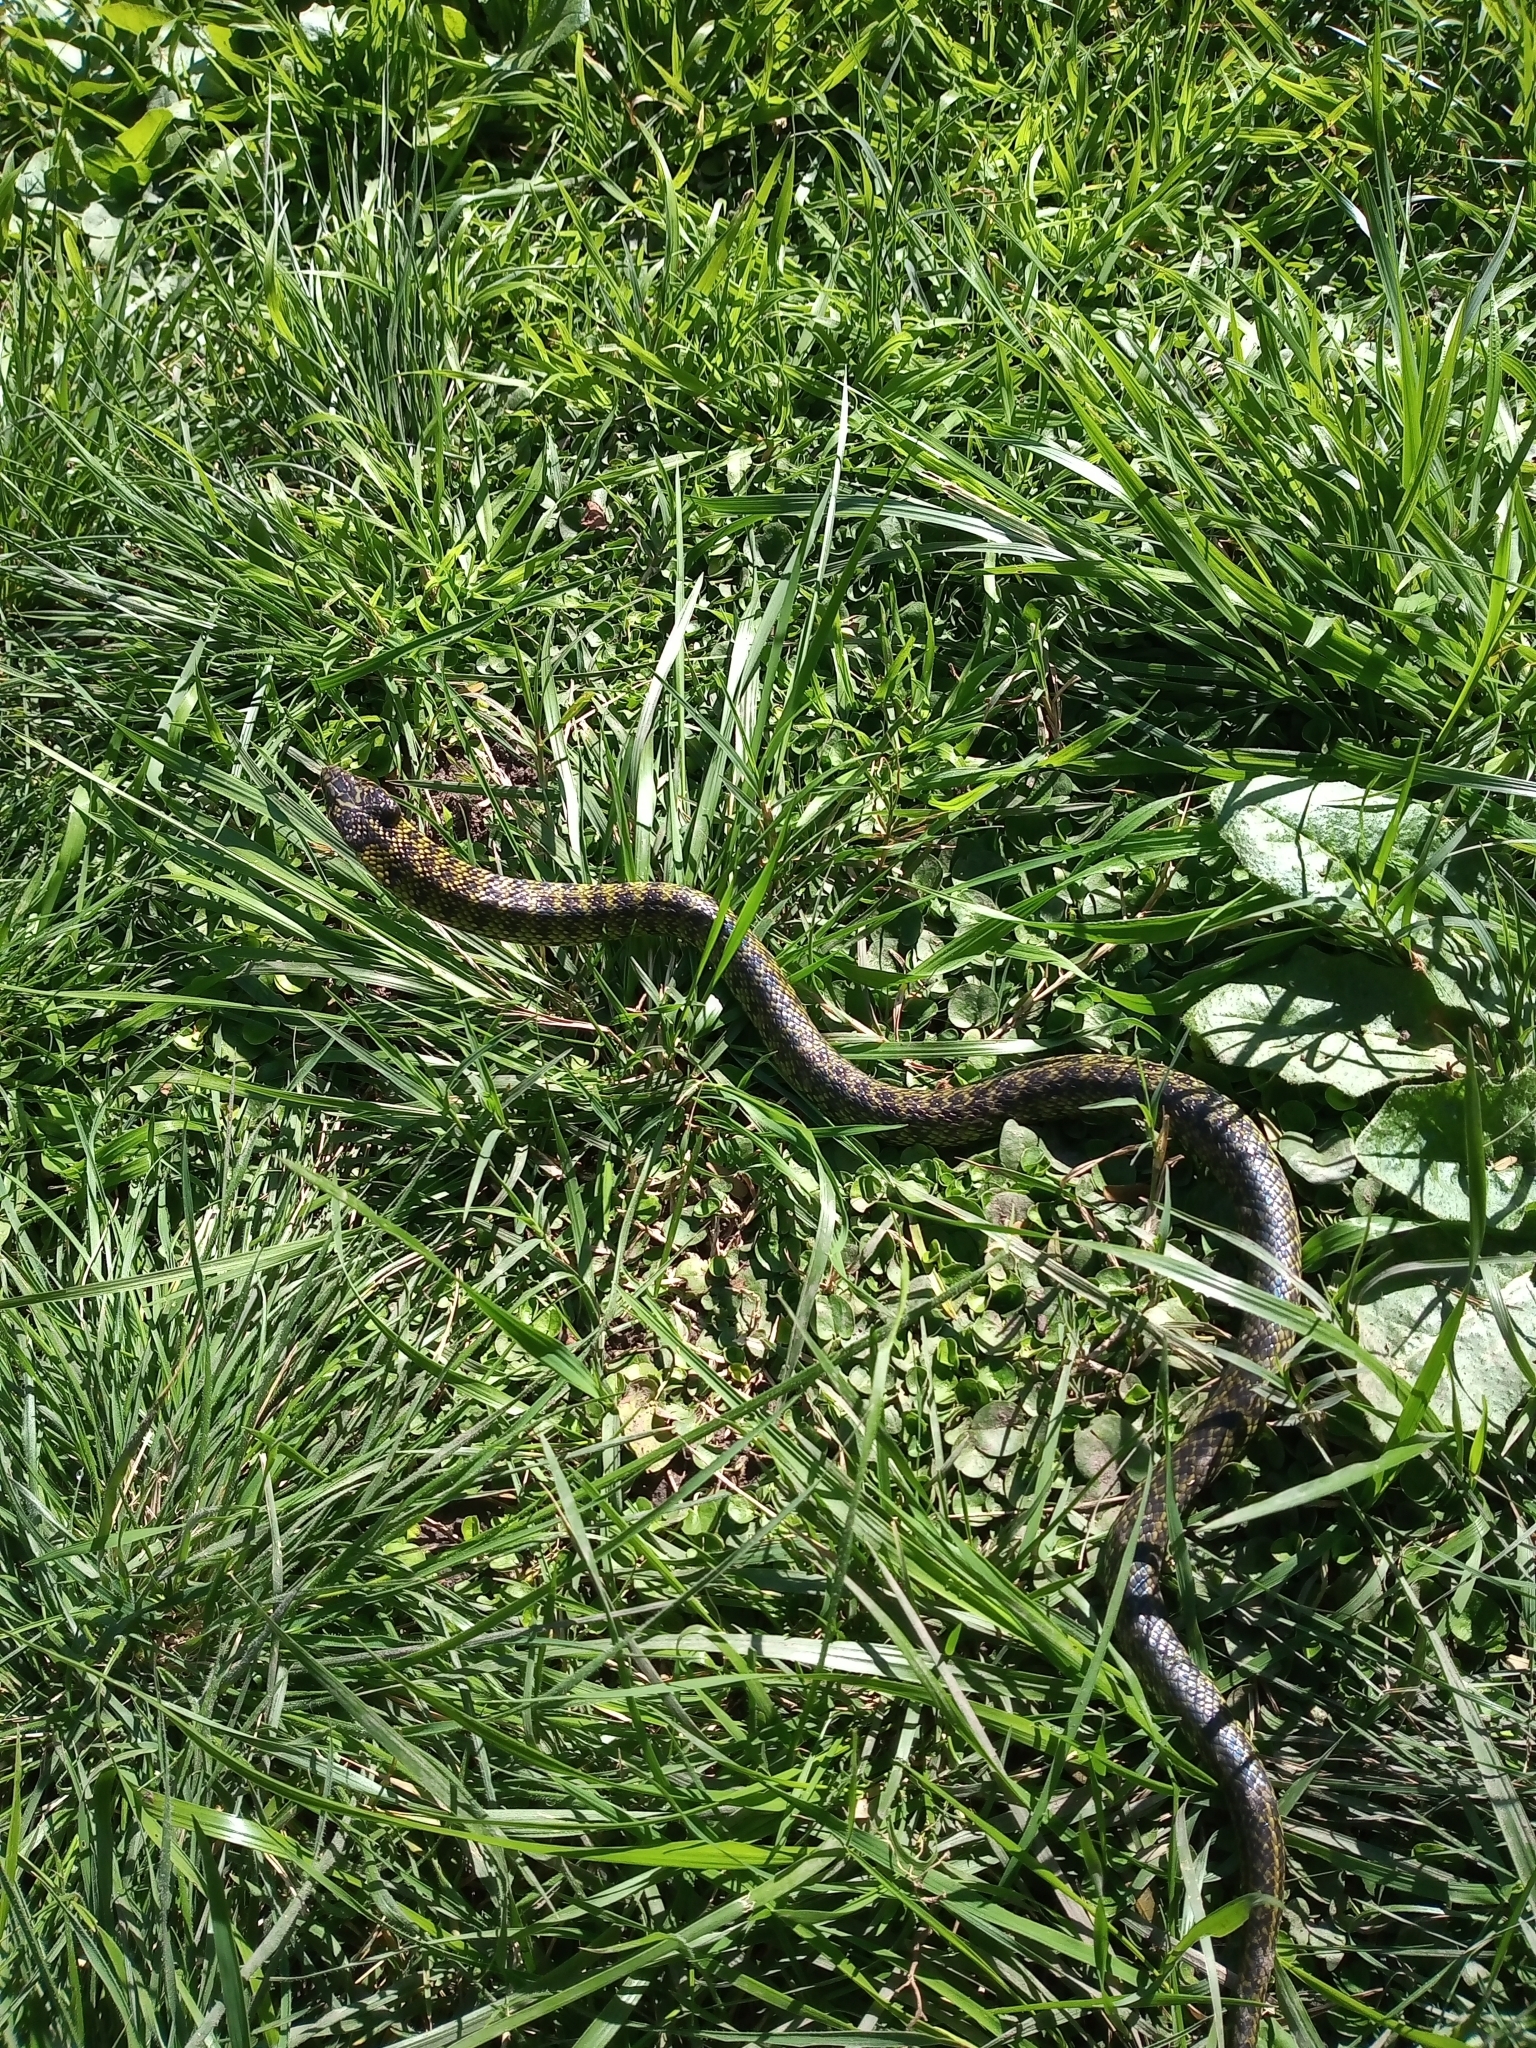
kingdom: Animalia
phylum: Chordata
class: Squamata
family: Colubridae
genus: Erythrolamprus
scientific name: Erythrolamprus poecilogyrus
